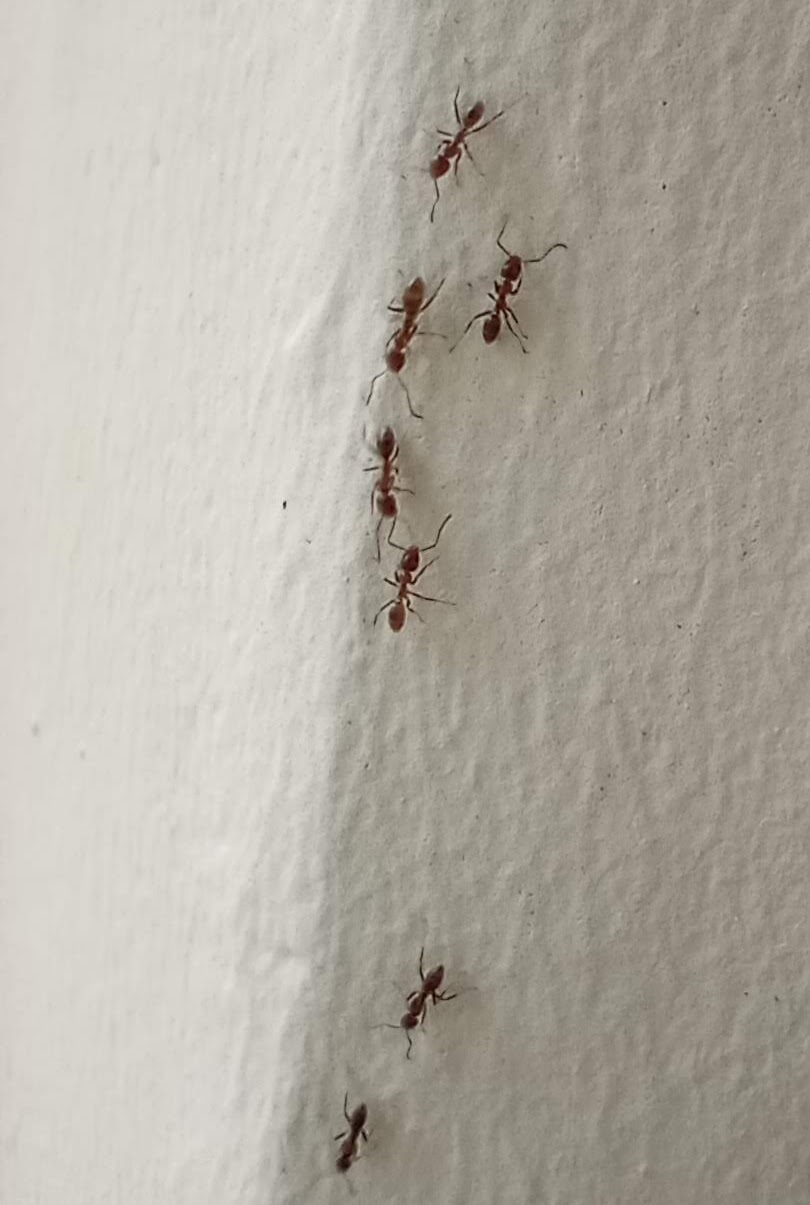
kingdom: Animalia
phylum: Arthropoda
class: Insecta
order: Hymenoptera
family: Formicidae
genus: Linepithema
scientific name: Linepithema humile
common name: Argentine ant
